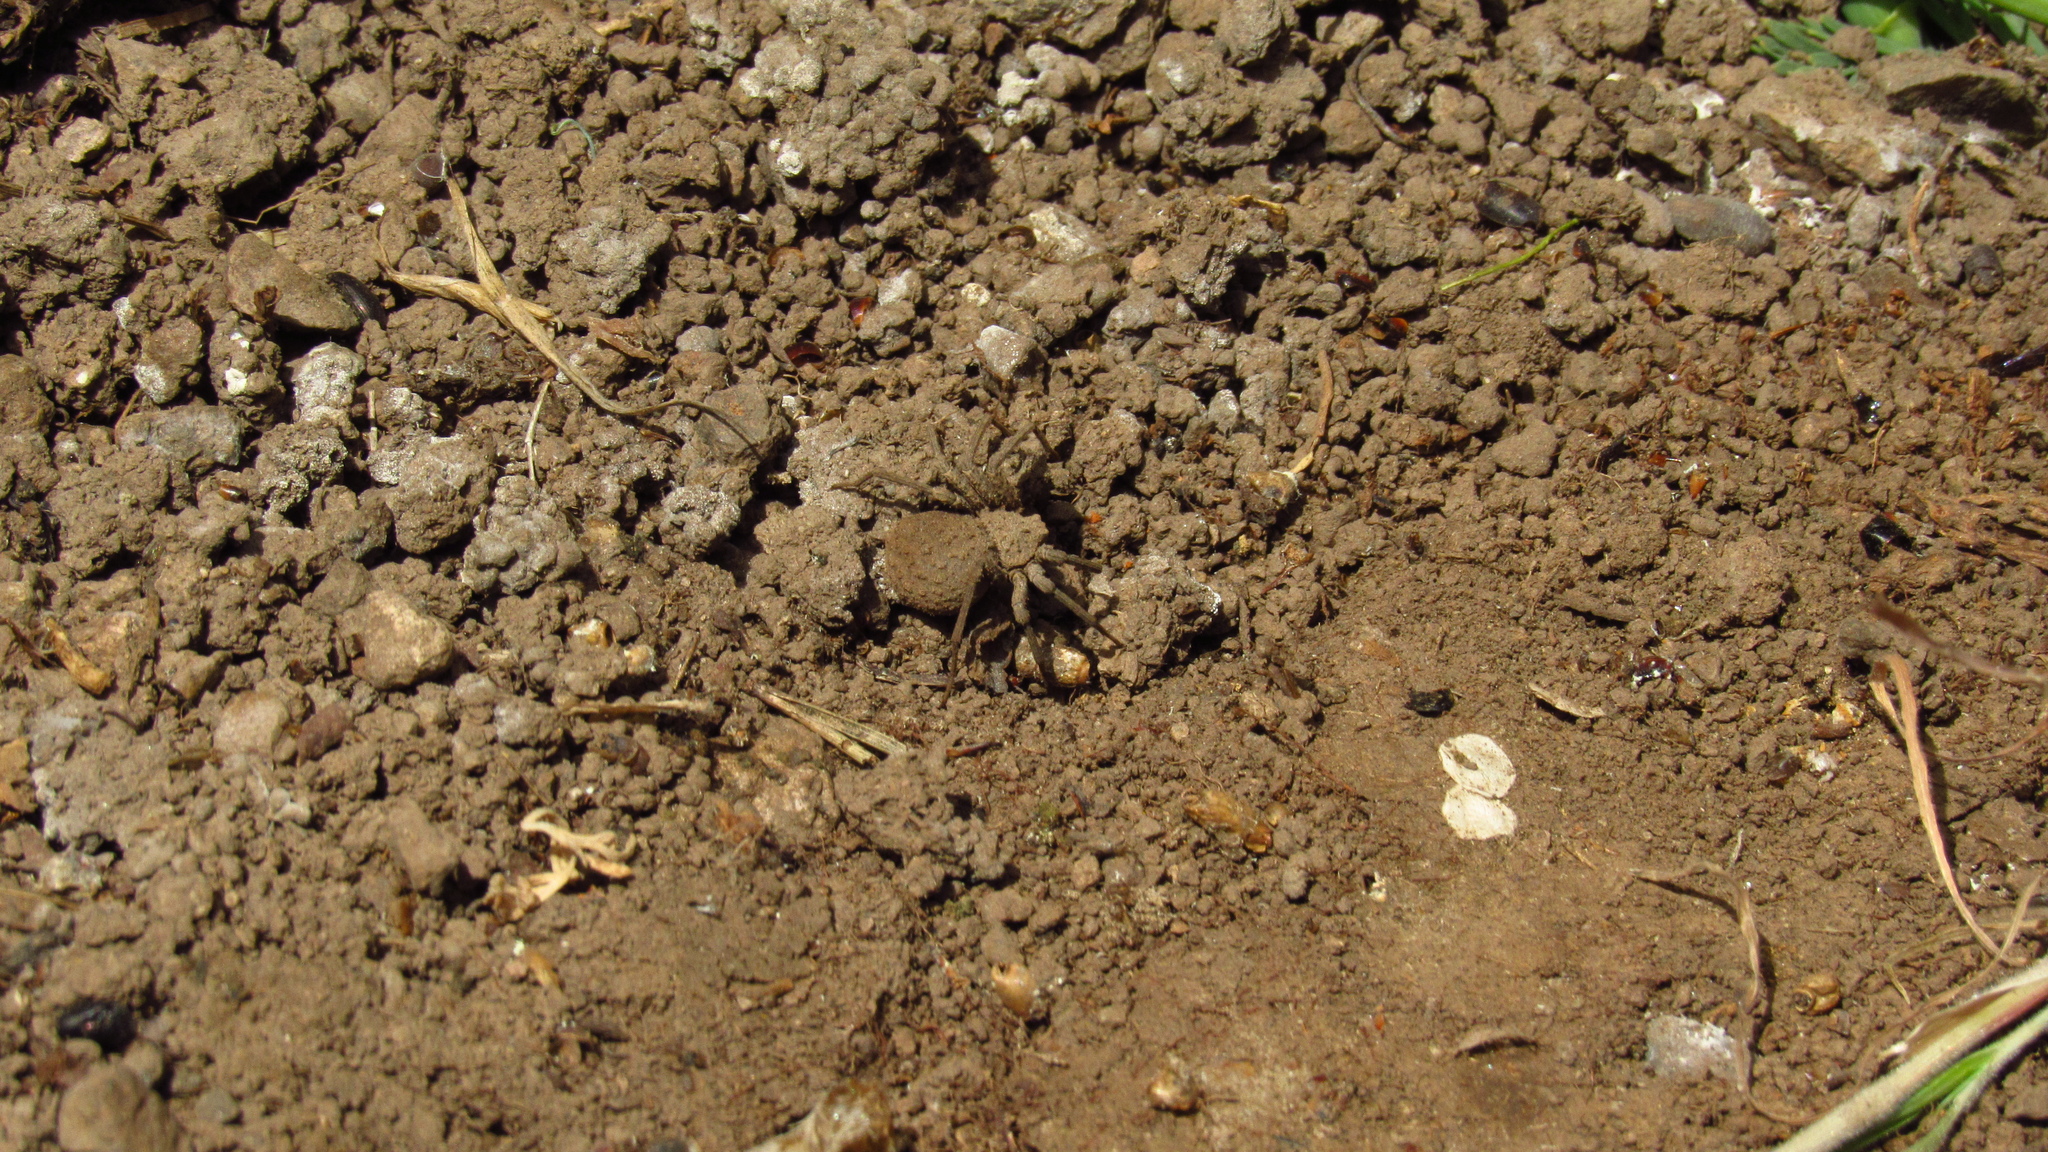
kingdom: Animalia
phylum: Arthropoda
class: Arachnida
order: Araneae
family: Sicariidae
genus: Sicarius
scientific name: Sicarius fumosus
